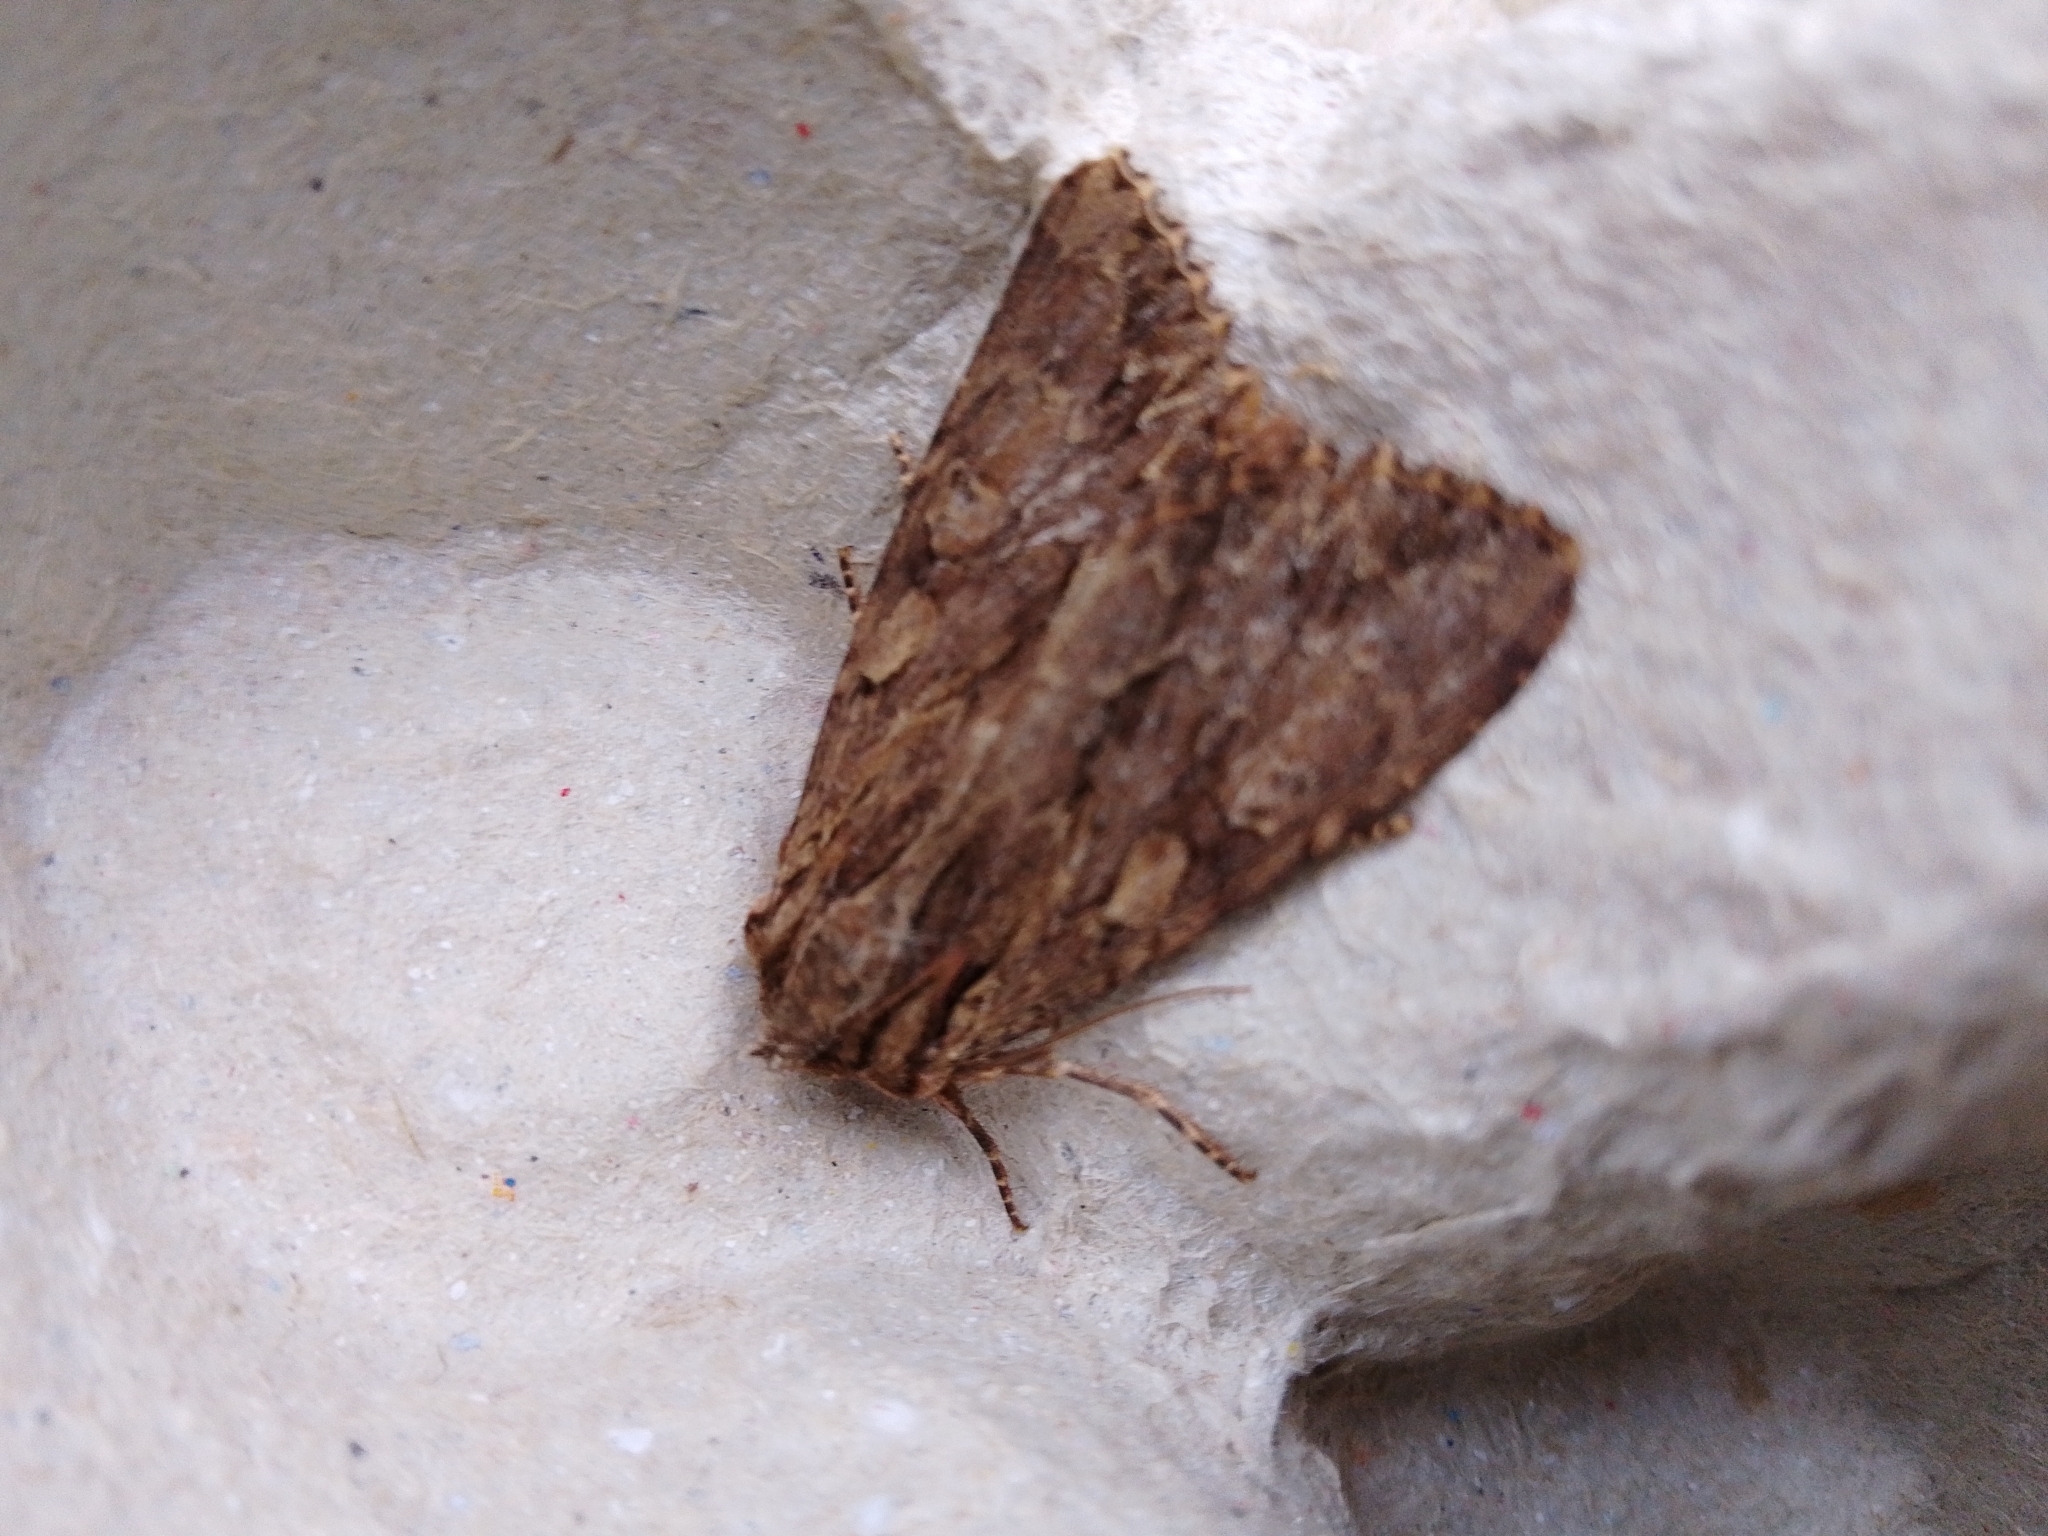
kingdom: Animalia
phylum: Arthropoda
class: Insecta
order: Lepidoptera
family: Noctuidae
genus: Apamea
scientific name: Apamea monoglypha
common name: Dark arches
